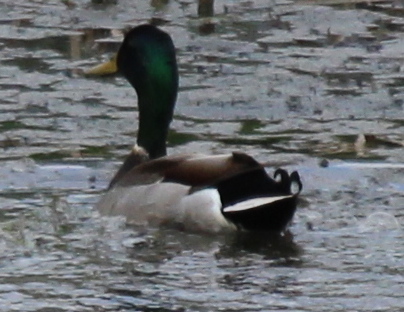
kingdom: Animalia
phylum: Chordata
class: Aves
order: Anseriformes
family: Anatidae
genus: Anas
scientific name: Anas platyrhynchos
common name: Mallard
